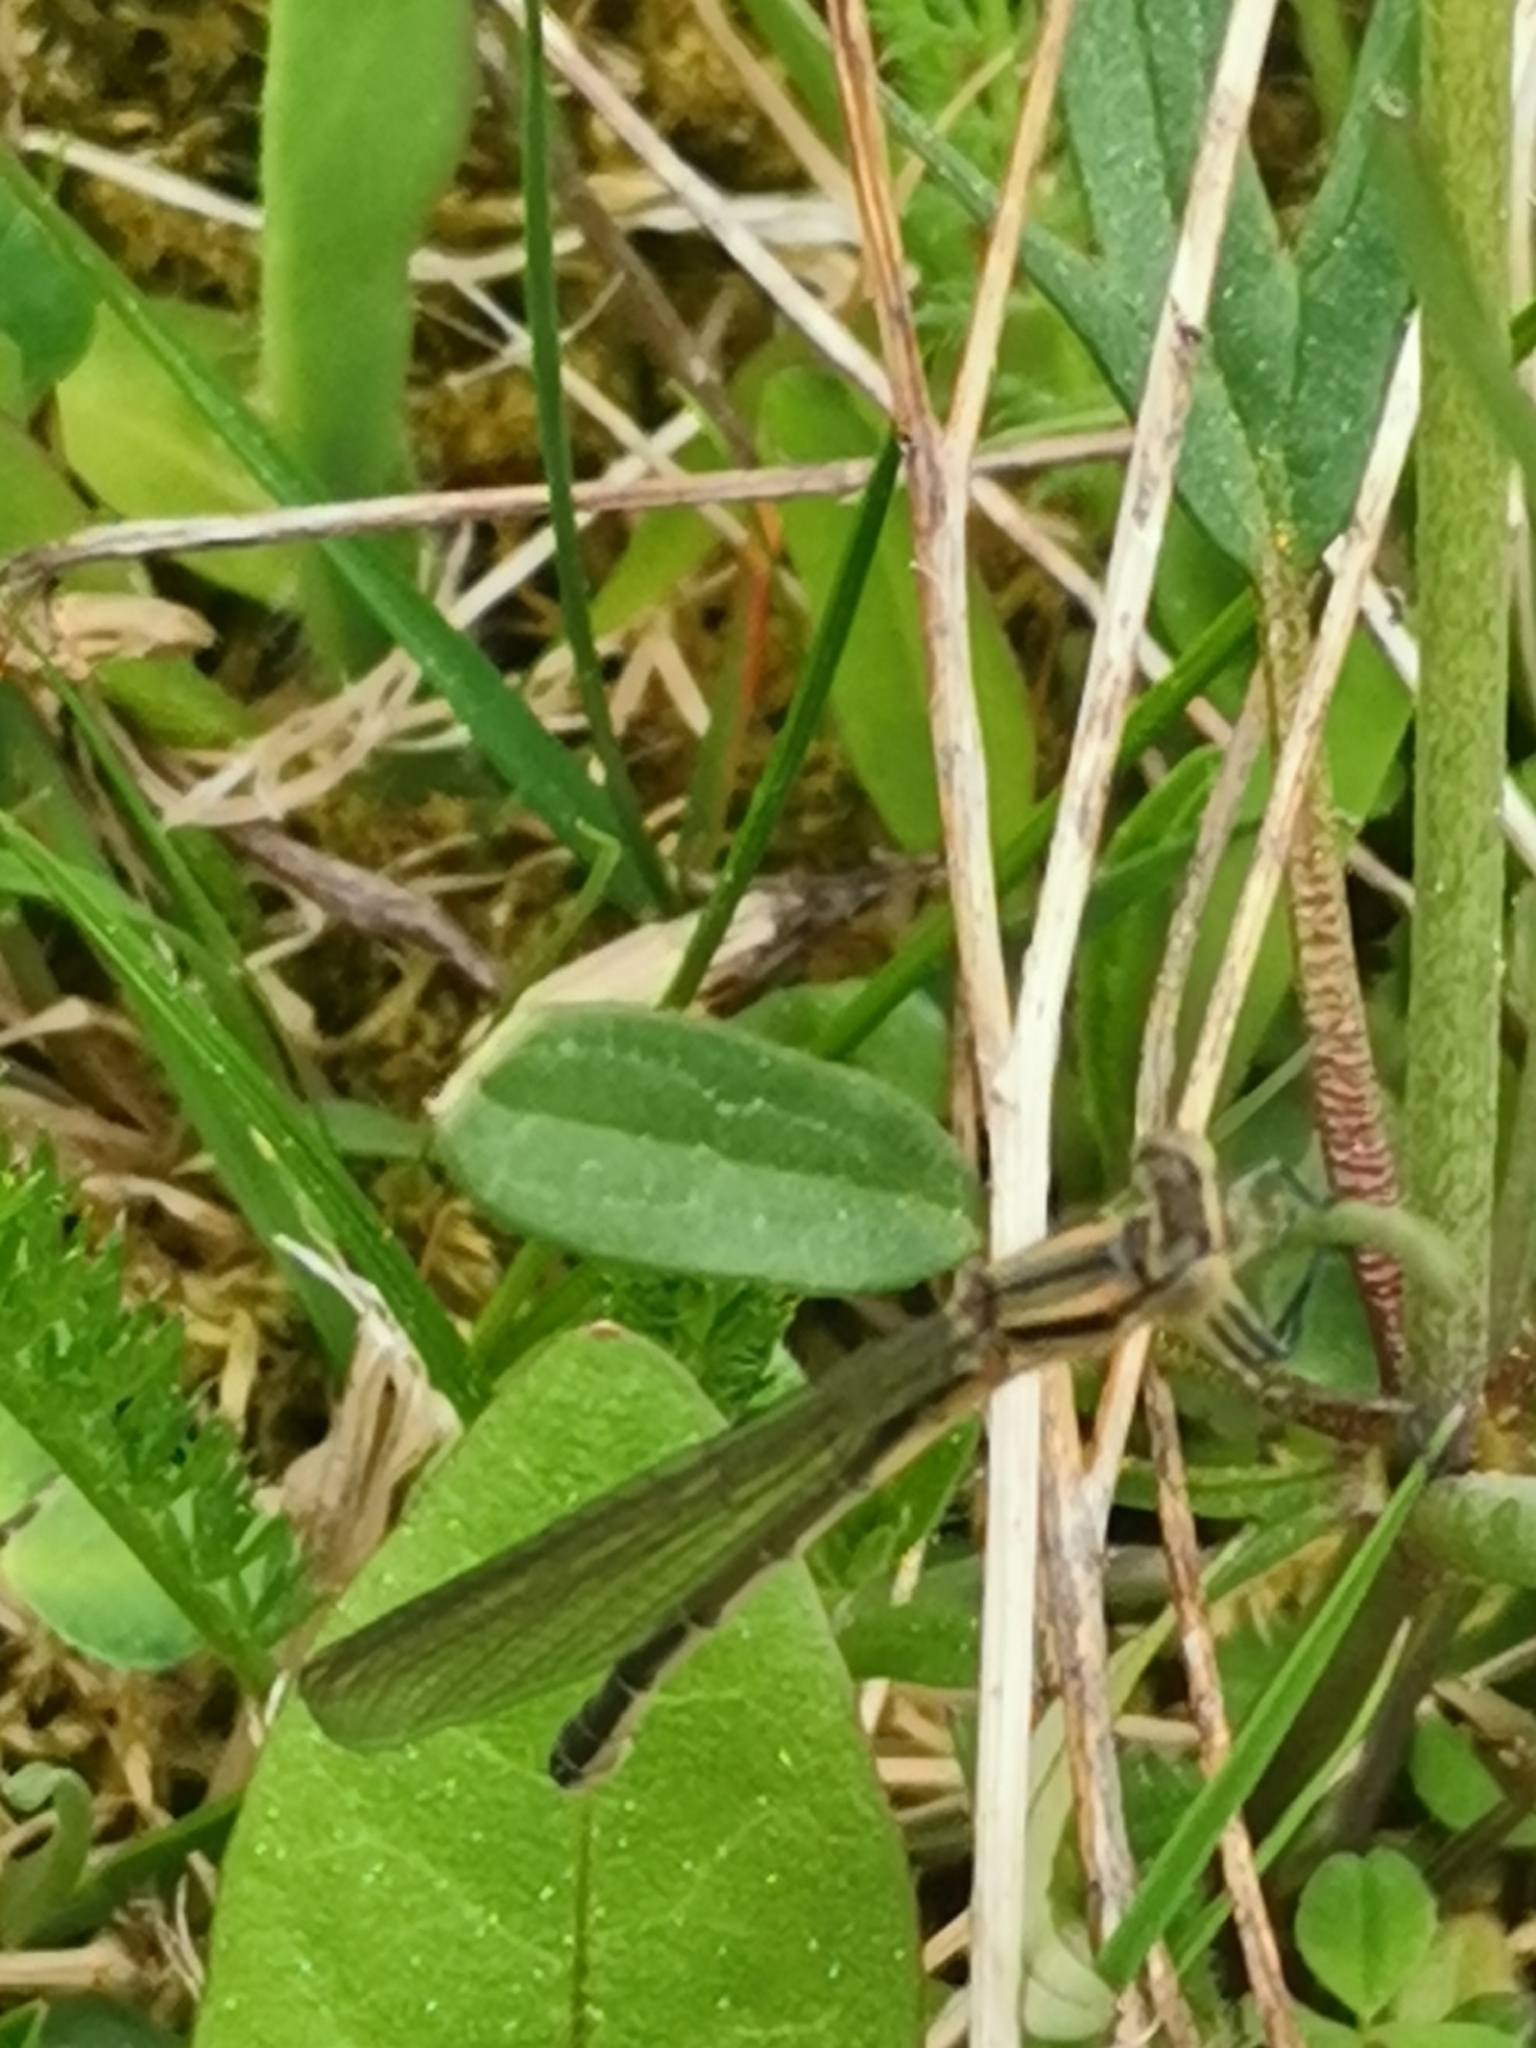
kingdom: Animalia
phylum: Arthropoda
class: Insecta
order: Odonata
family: Coenagrionidae
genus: Coenagrion
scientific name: Coenagrion hastulatum
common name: Spearhead bluet
